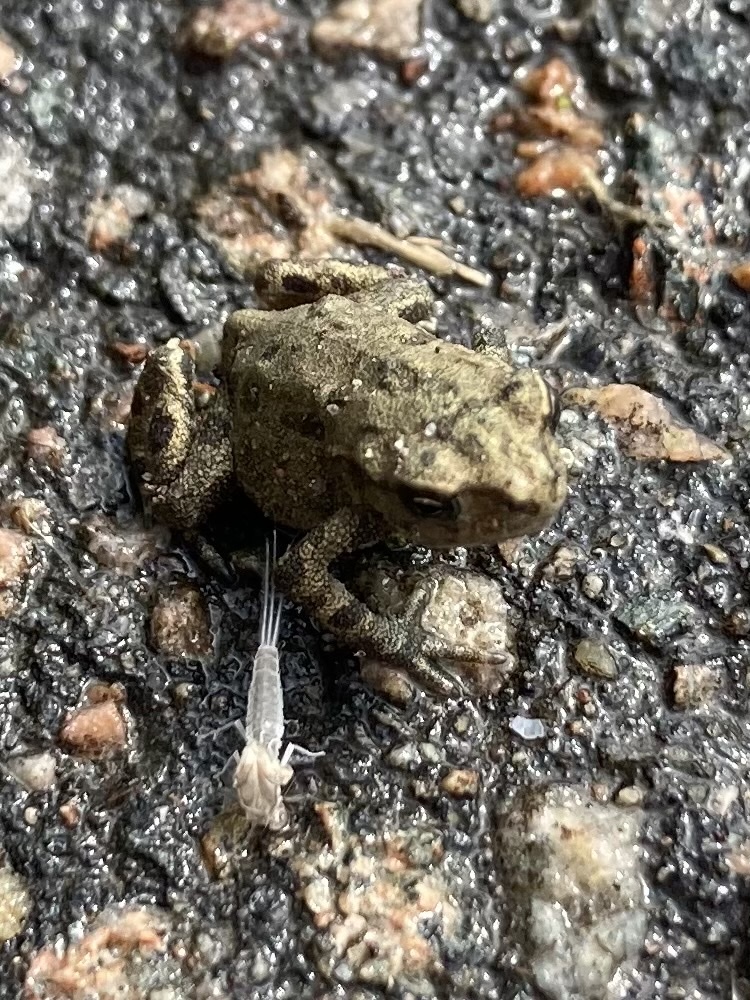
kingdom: Animalia
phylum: Chordata
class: Amphibia
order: Anura
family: Bufonidae
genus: Bufo
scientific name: Bufo bufo
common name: Common toad
